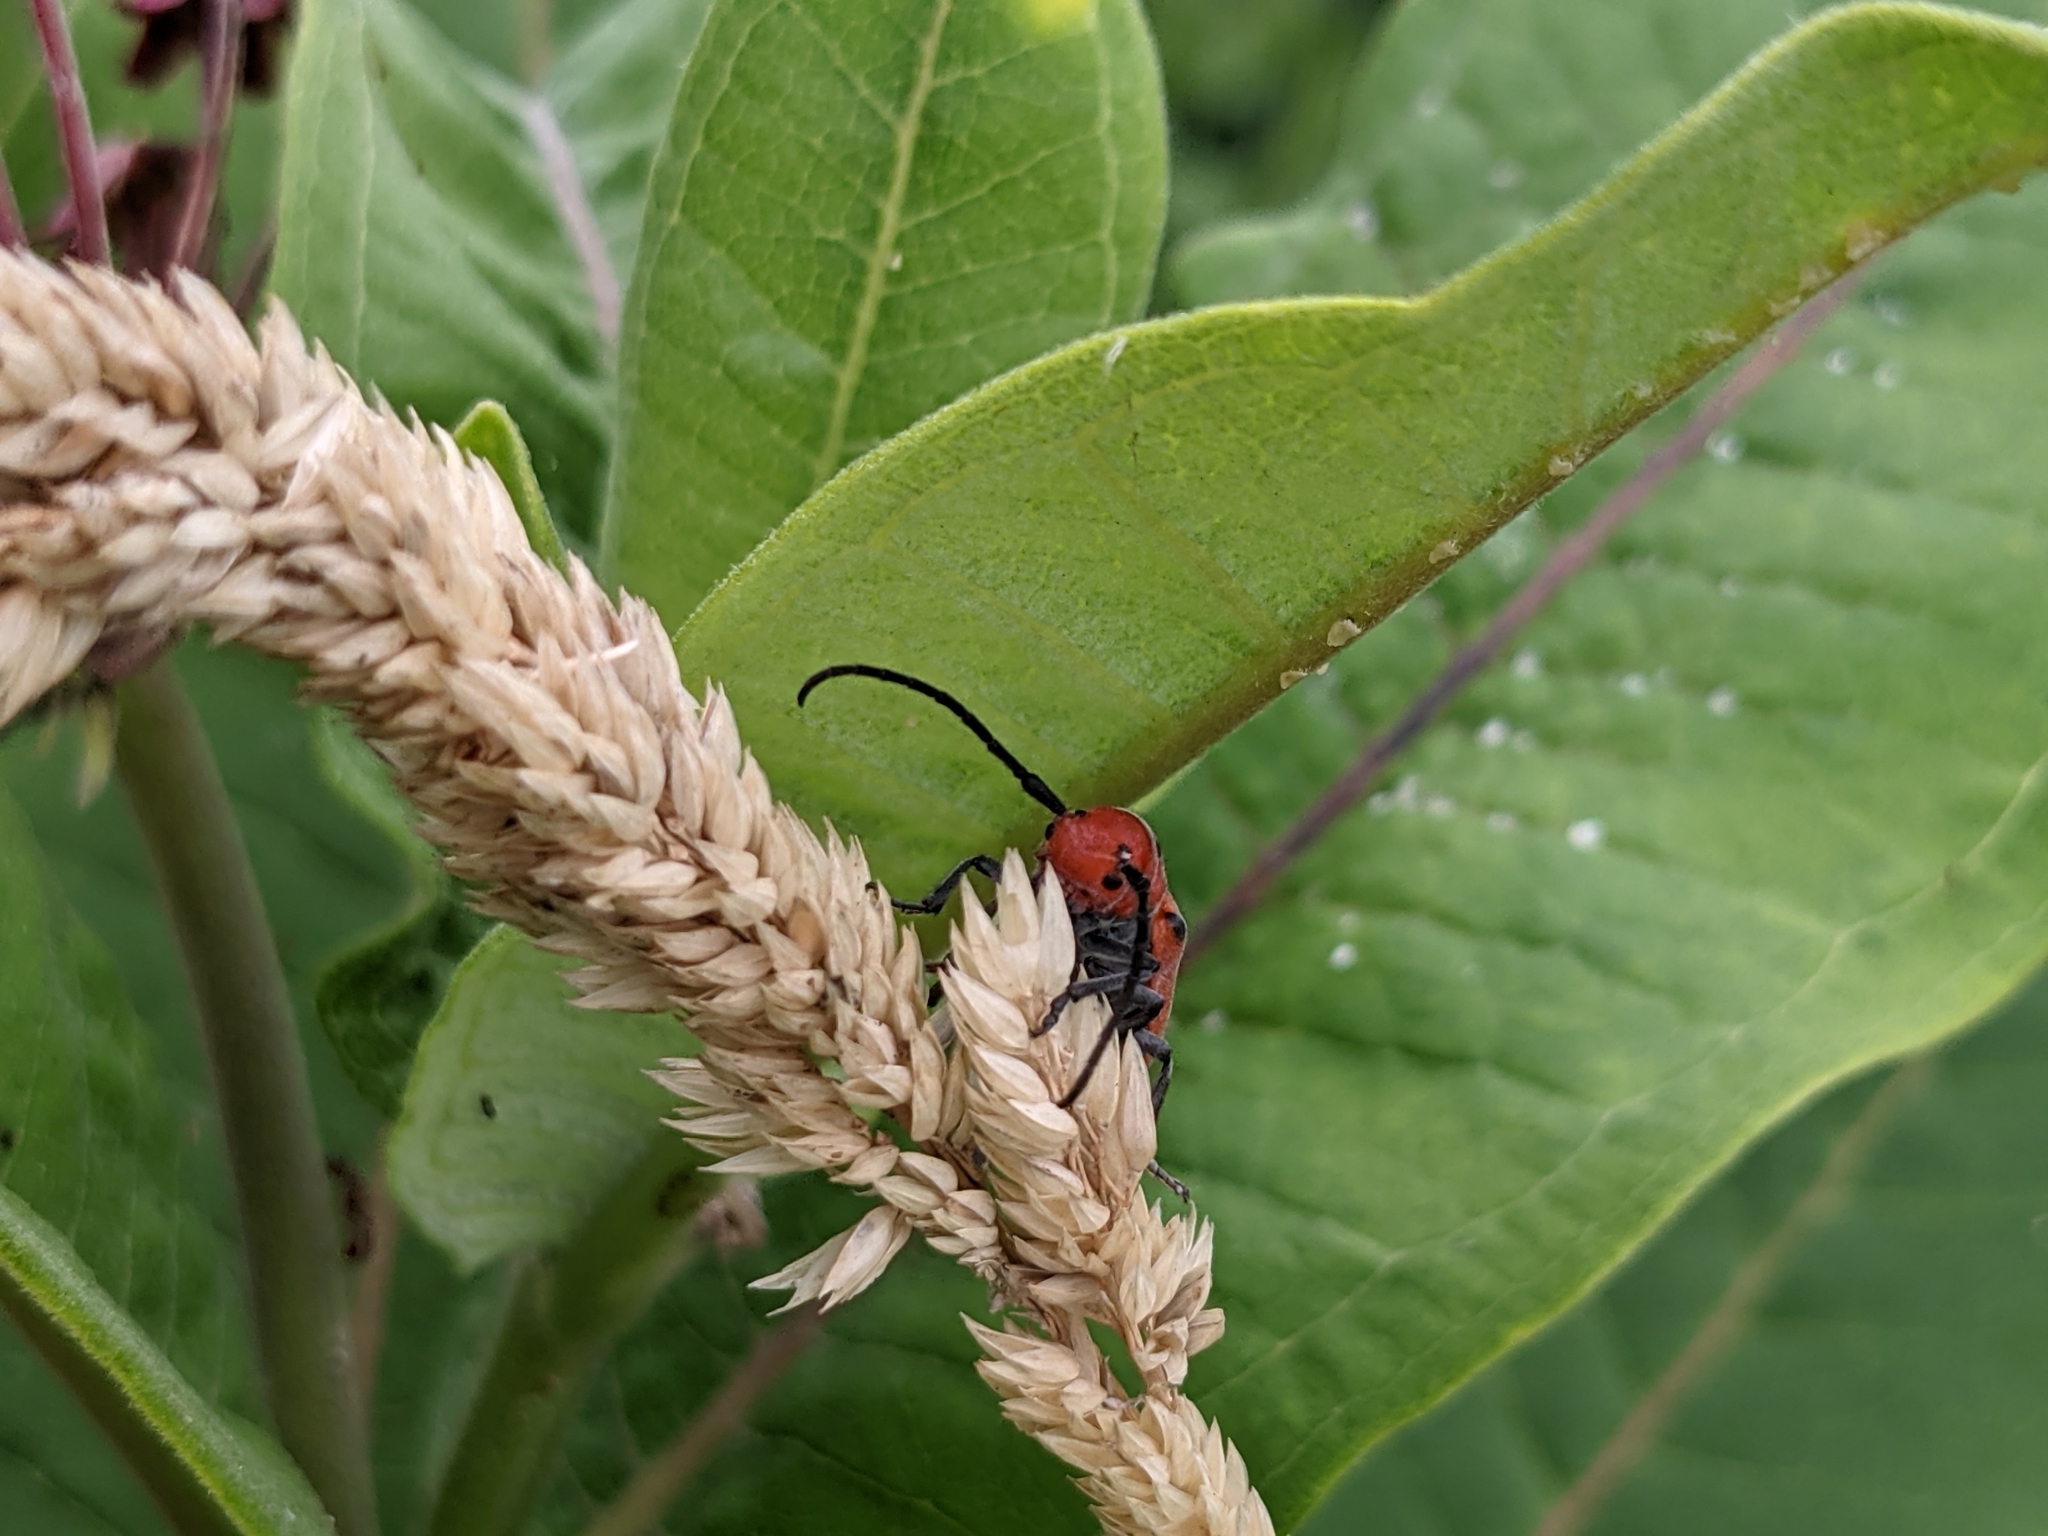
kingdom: Animalia
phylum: Arthropoda
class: Insecta
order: Coleoptera
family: Cerambycidae
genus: Tetraopes
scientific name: Tetraopes tetrophthalmus
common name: Red milkweed beetle
